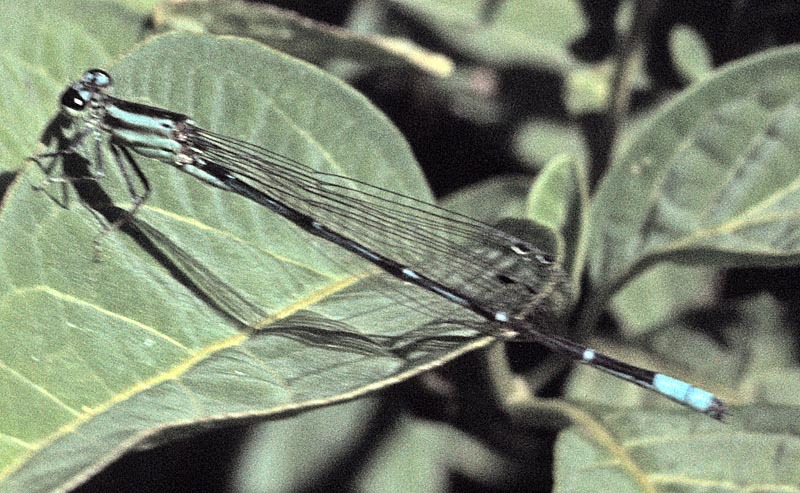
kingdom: Animalia
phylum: Arthropoda
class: Insecta
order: Odonata
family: Coenagrionidae
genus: Anisagrion
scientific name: Anisagrion kennedyi
